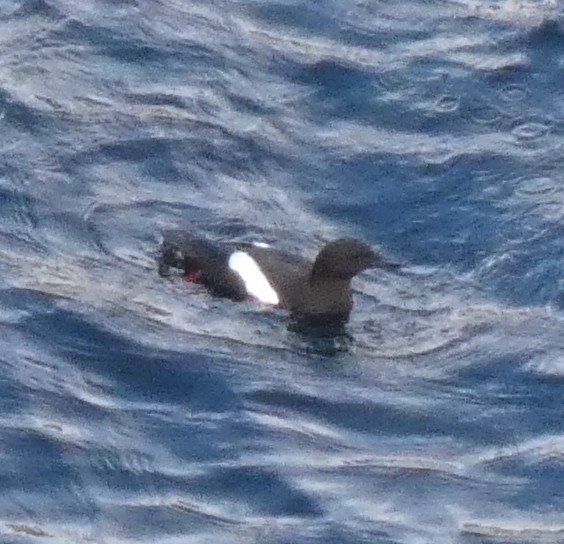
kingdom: Animalia
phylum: Chordata
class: Aves
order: Charadriiformes
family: Alcidae
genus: Cepphus
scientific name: Cepphus grylle
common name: Black guillemot
